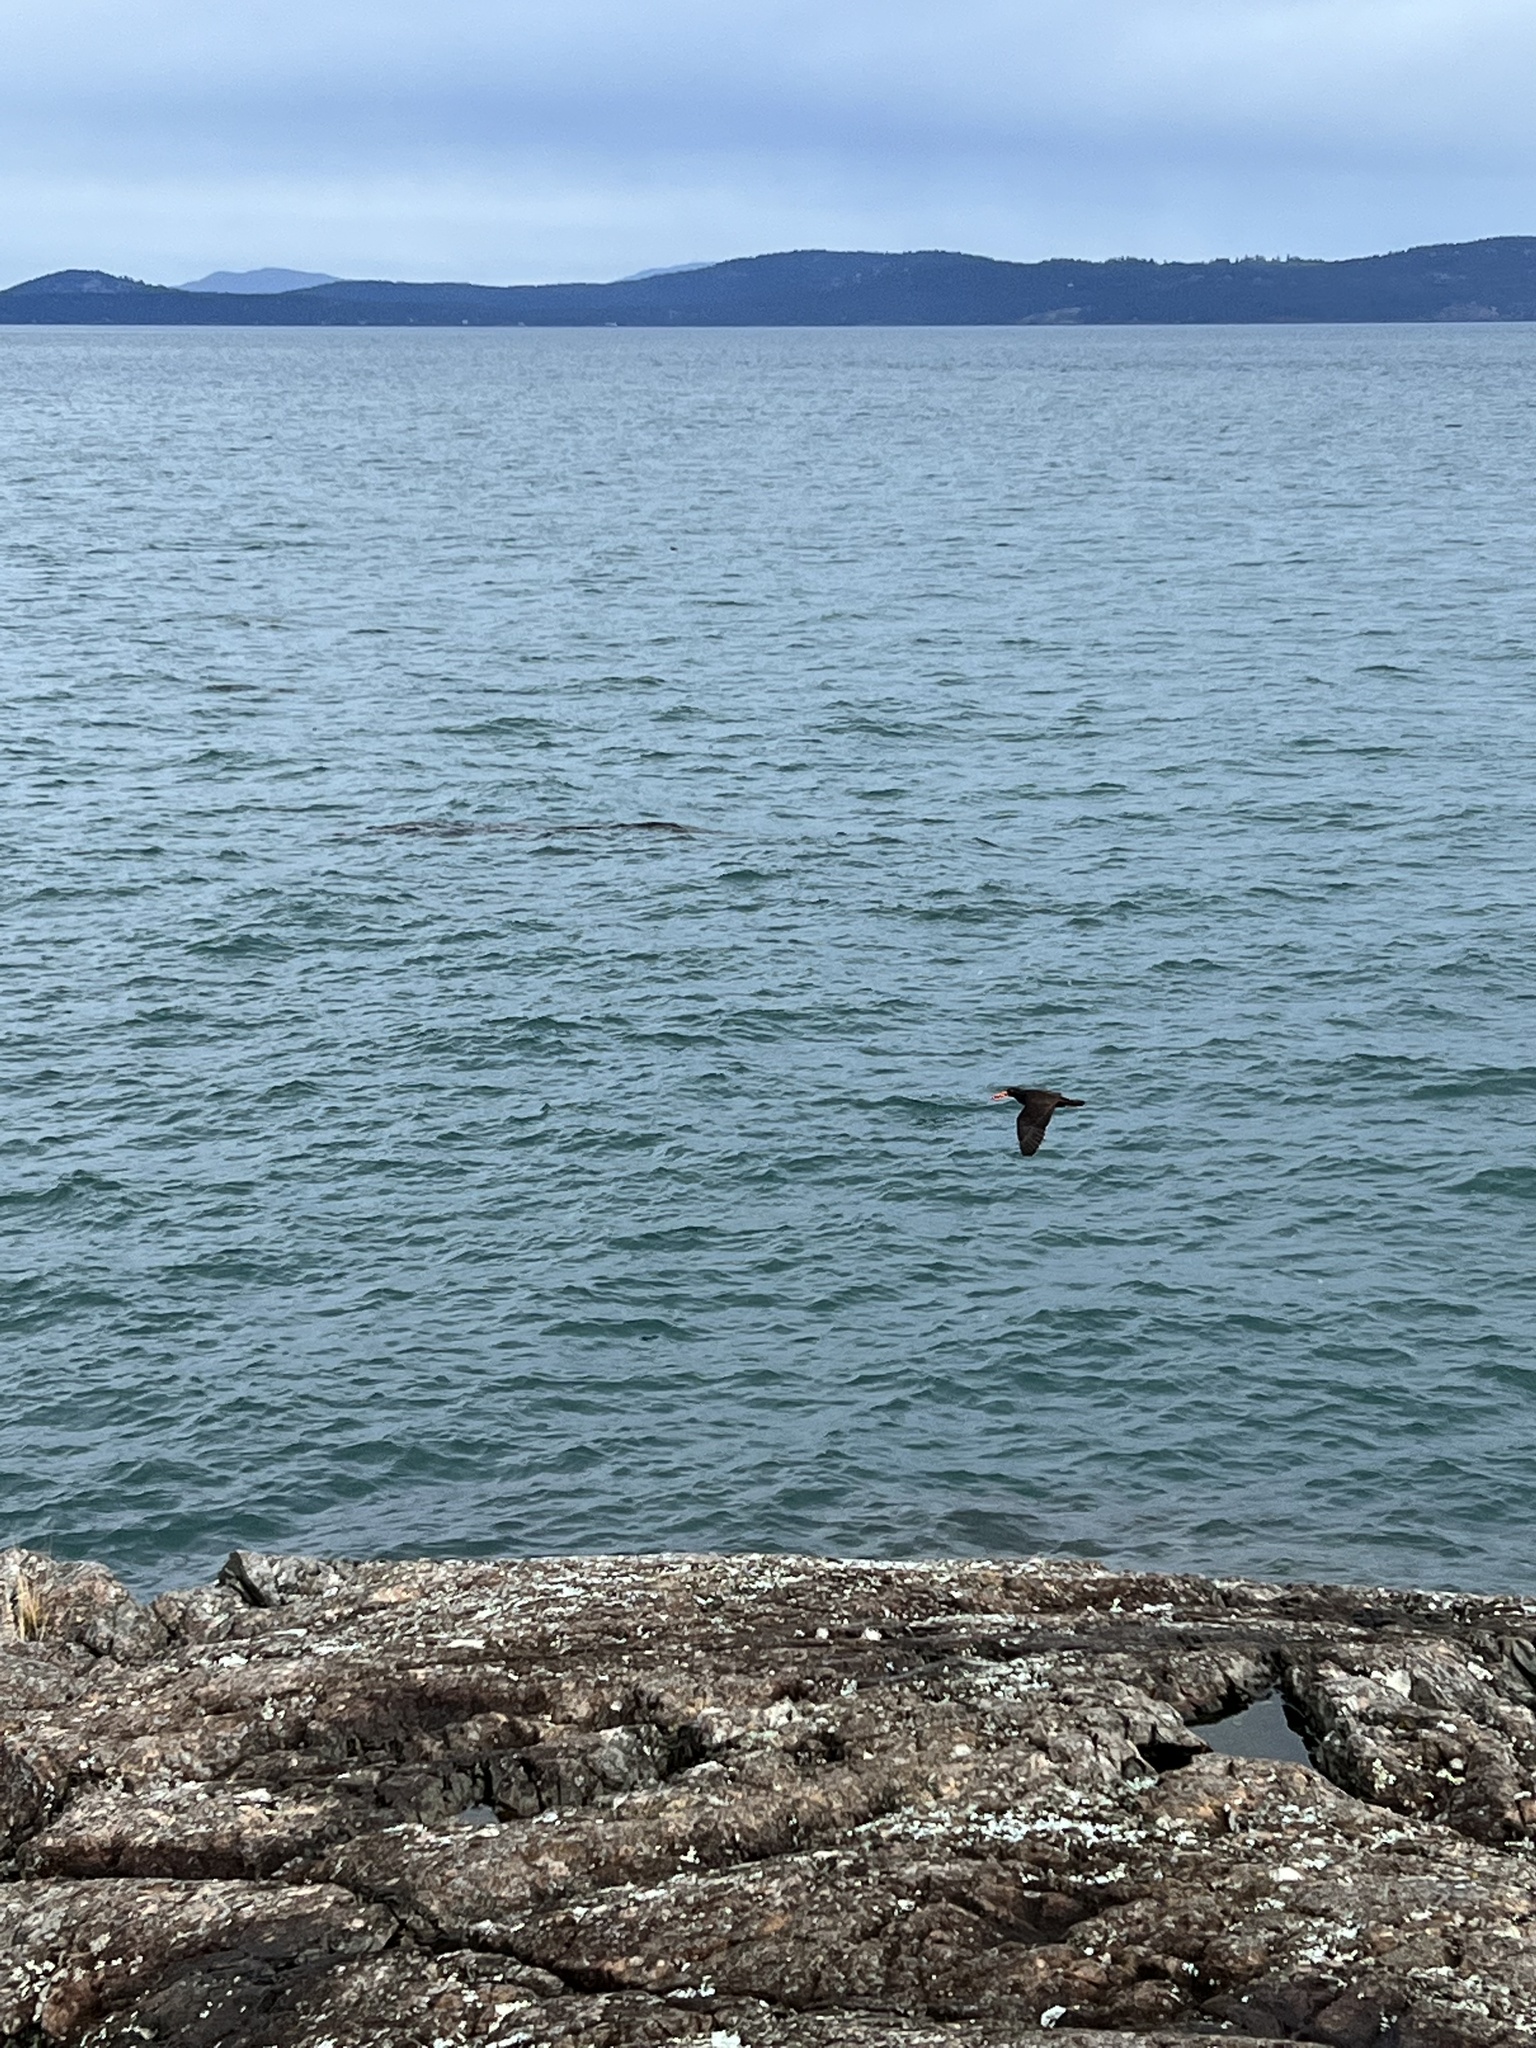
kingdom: Animalia
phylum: Chordata
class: Aves
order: Charadriiformes
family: Haematopodidae
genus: Haematopus
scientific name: Haematopus bachmani
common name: Black oystercatcher
